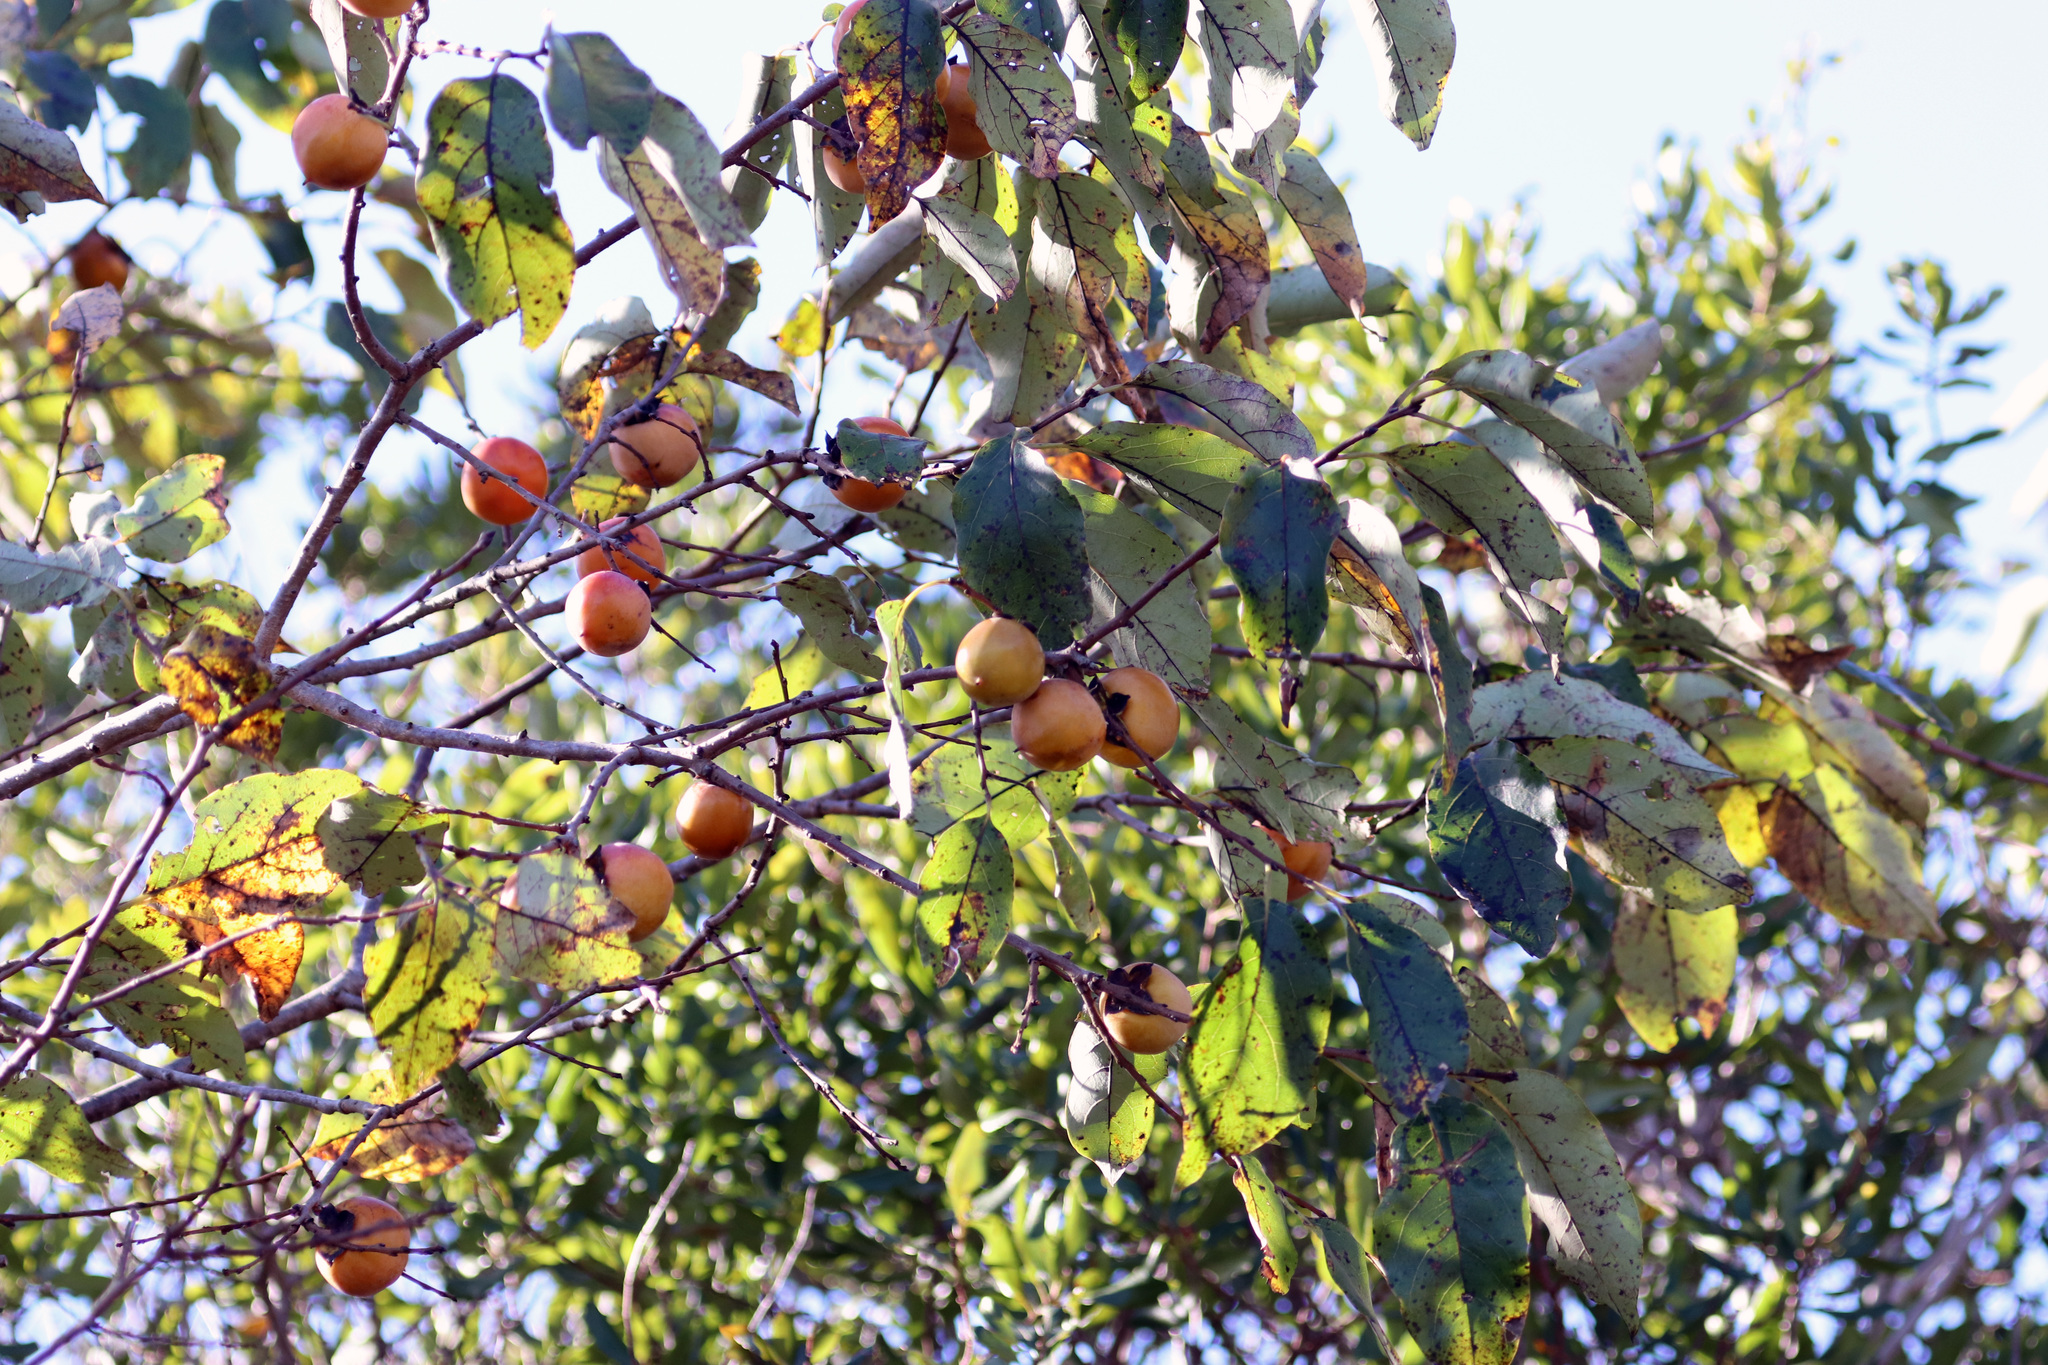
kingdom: Plantae
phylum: Tracheophyta
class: Magnoliopsida
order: Ericales
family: Ebenaceae
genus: Diospyros
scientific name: Diospyros virginiana
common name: Persimmon
